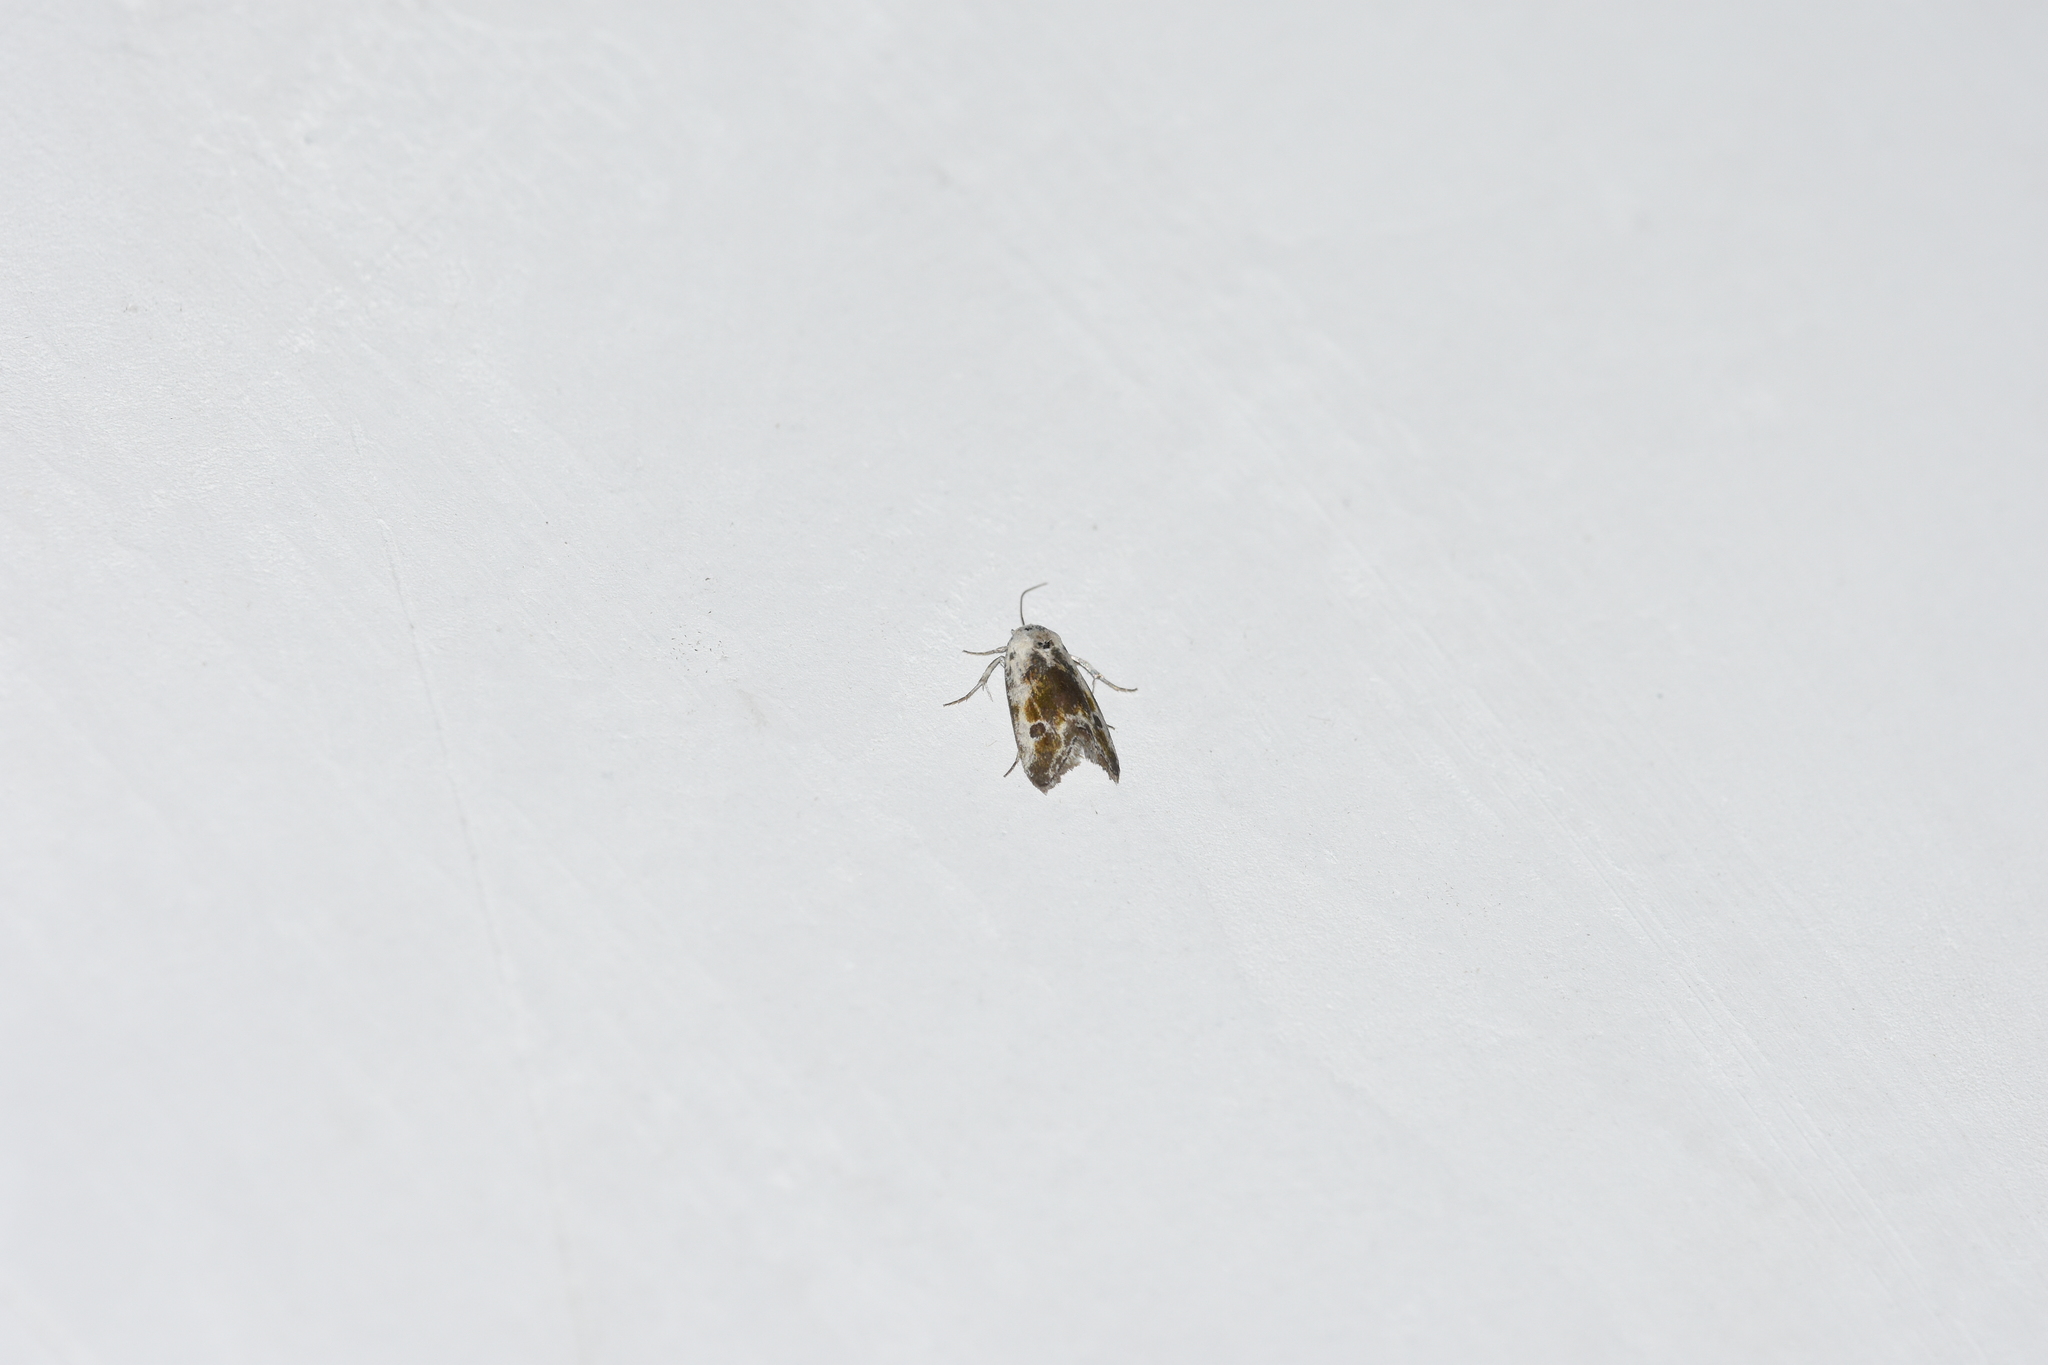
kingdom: Animalia
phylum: Arthropoda
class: Insecta
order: Lepidoptera
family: Noctuidae
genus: Acontia
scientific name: Acontia candefacta
